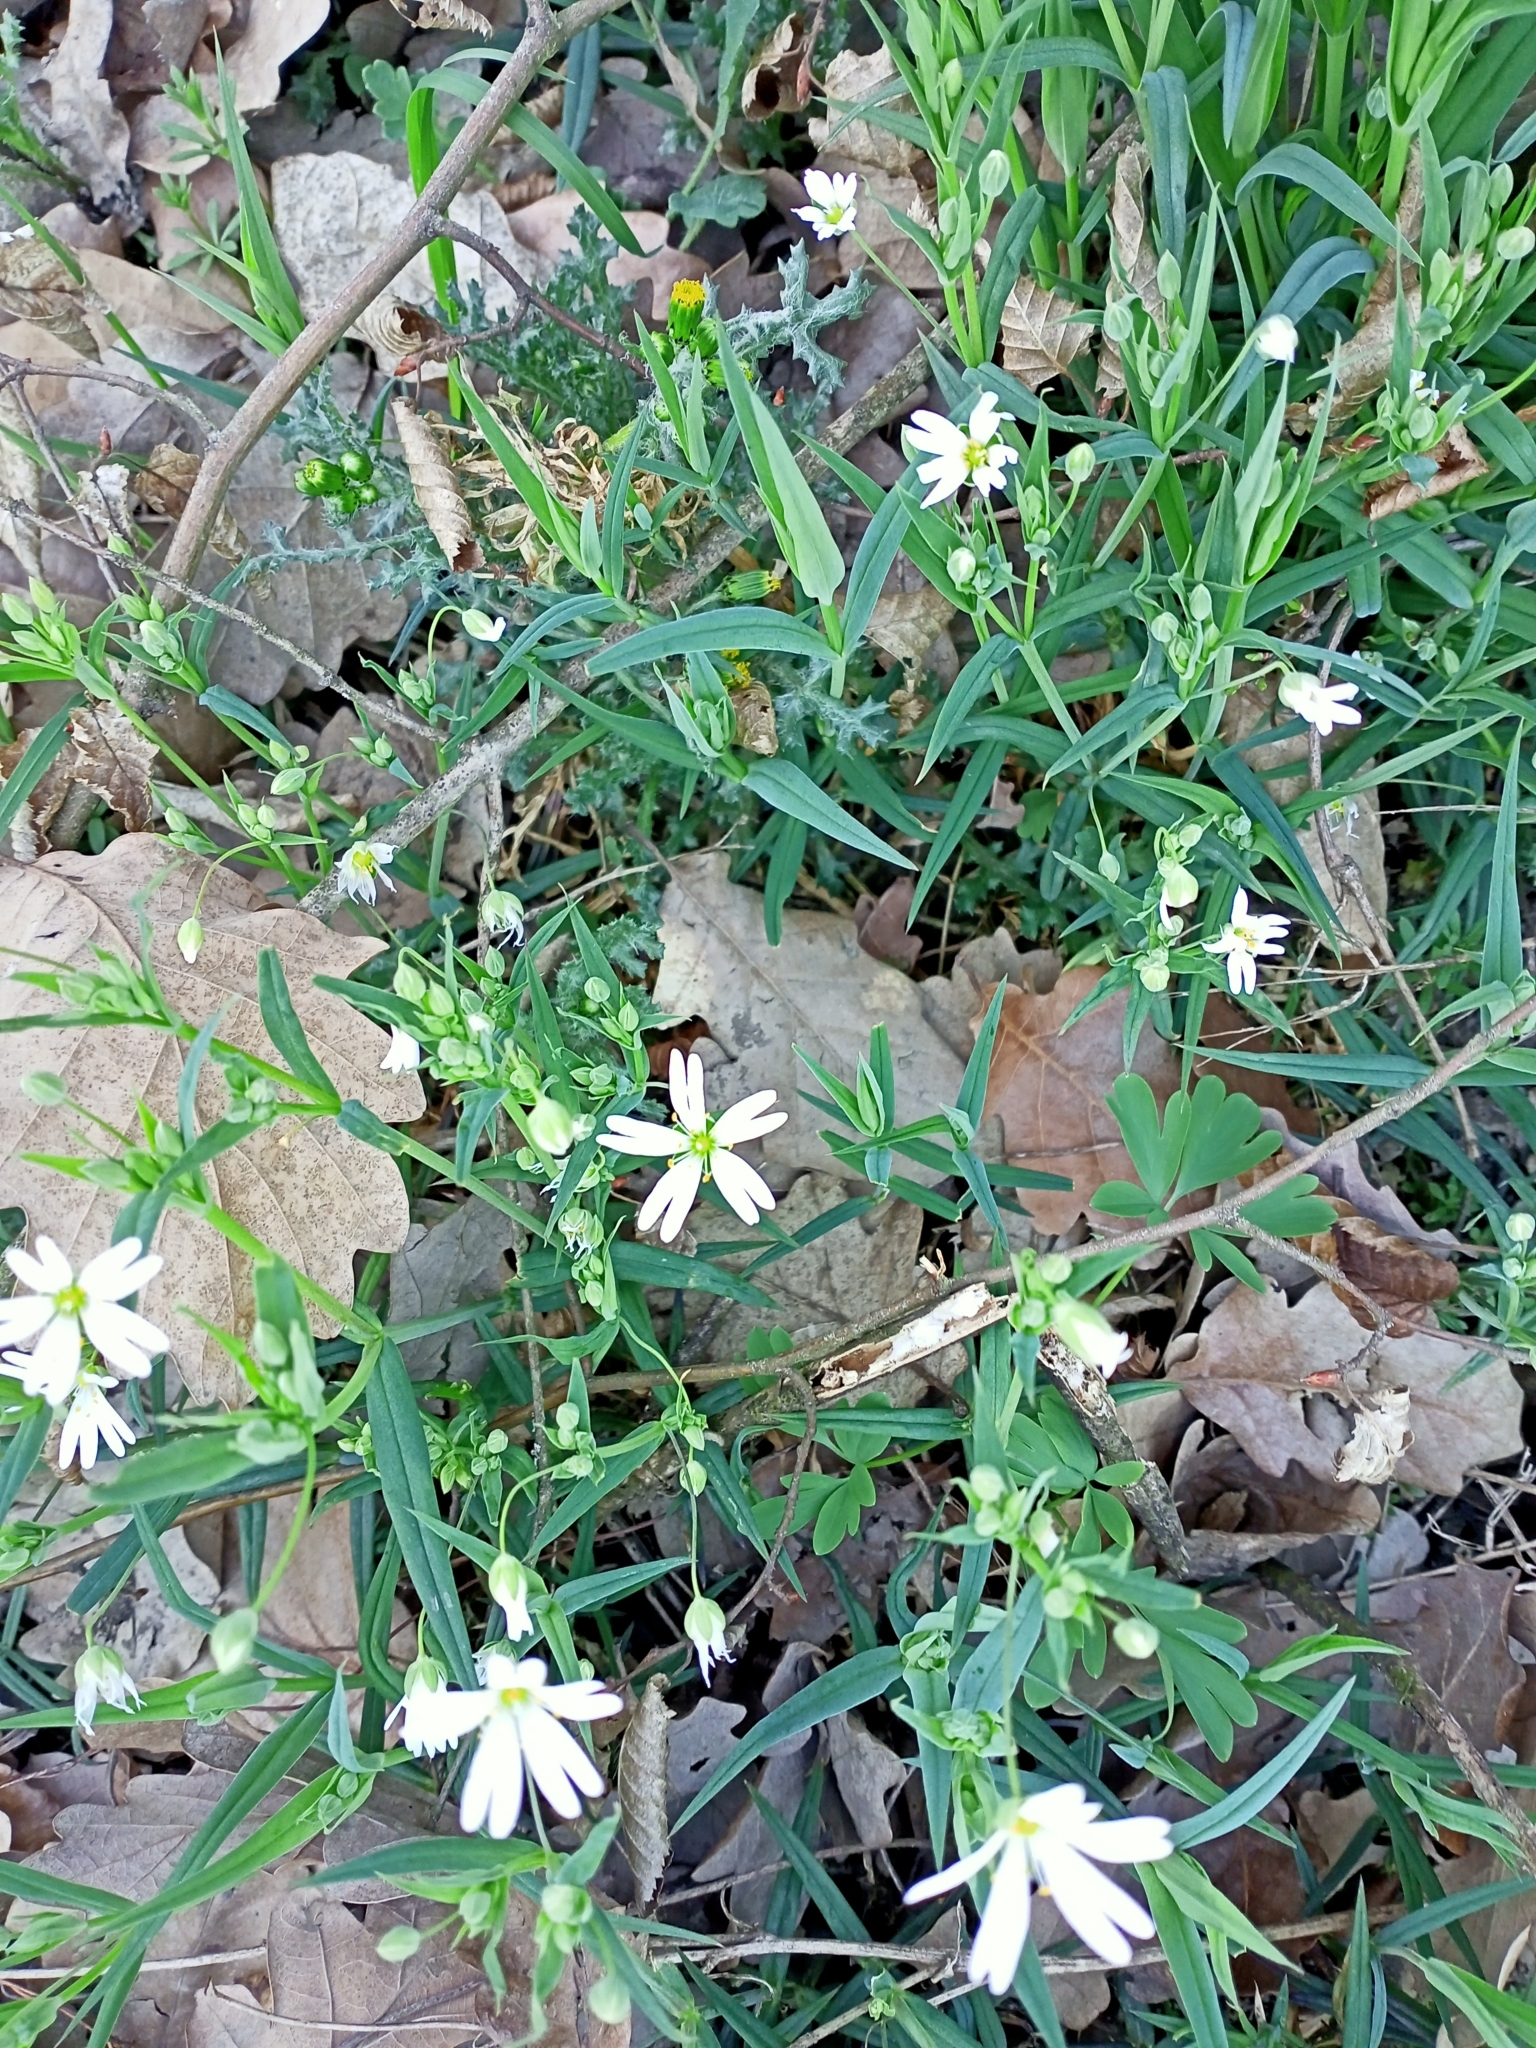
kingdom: Plantae
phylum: Tracheophyta
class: Magnoliopsida
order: Caryophyllales
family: Caryophyllaceae
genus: Rabelera
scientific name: Rabelera holostea
